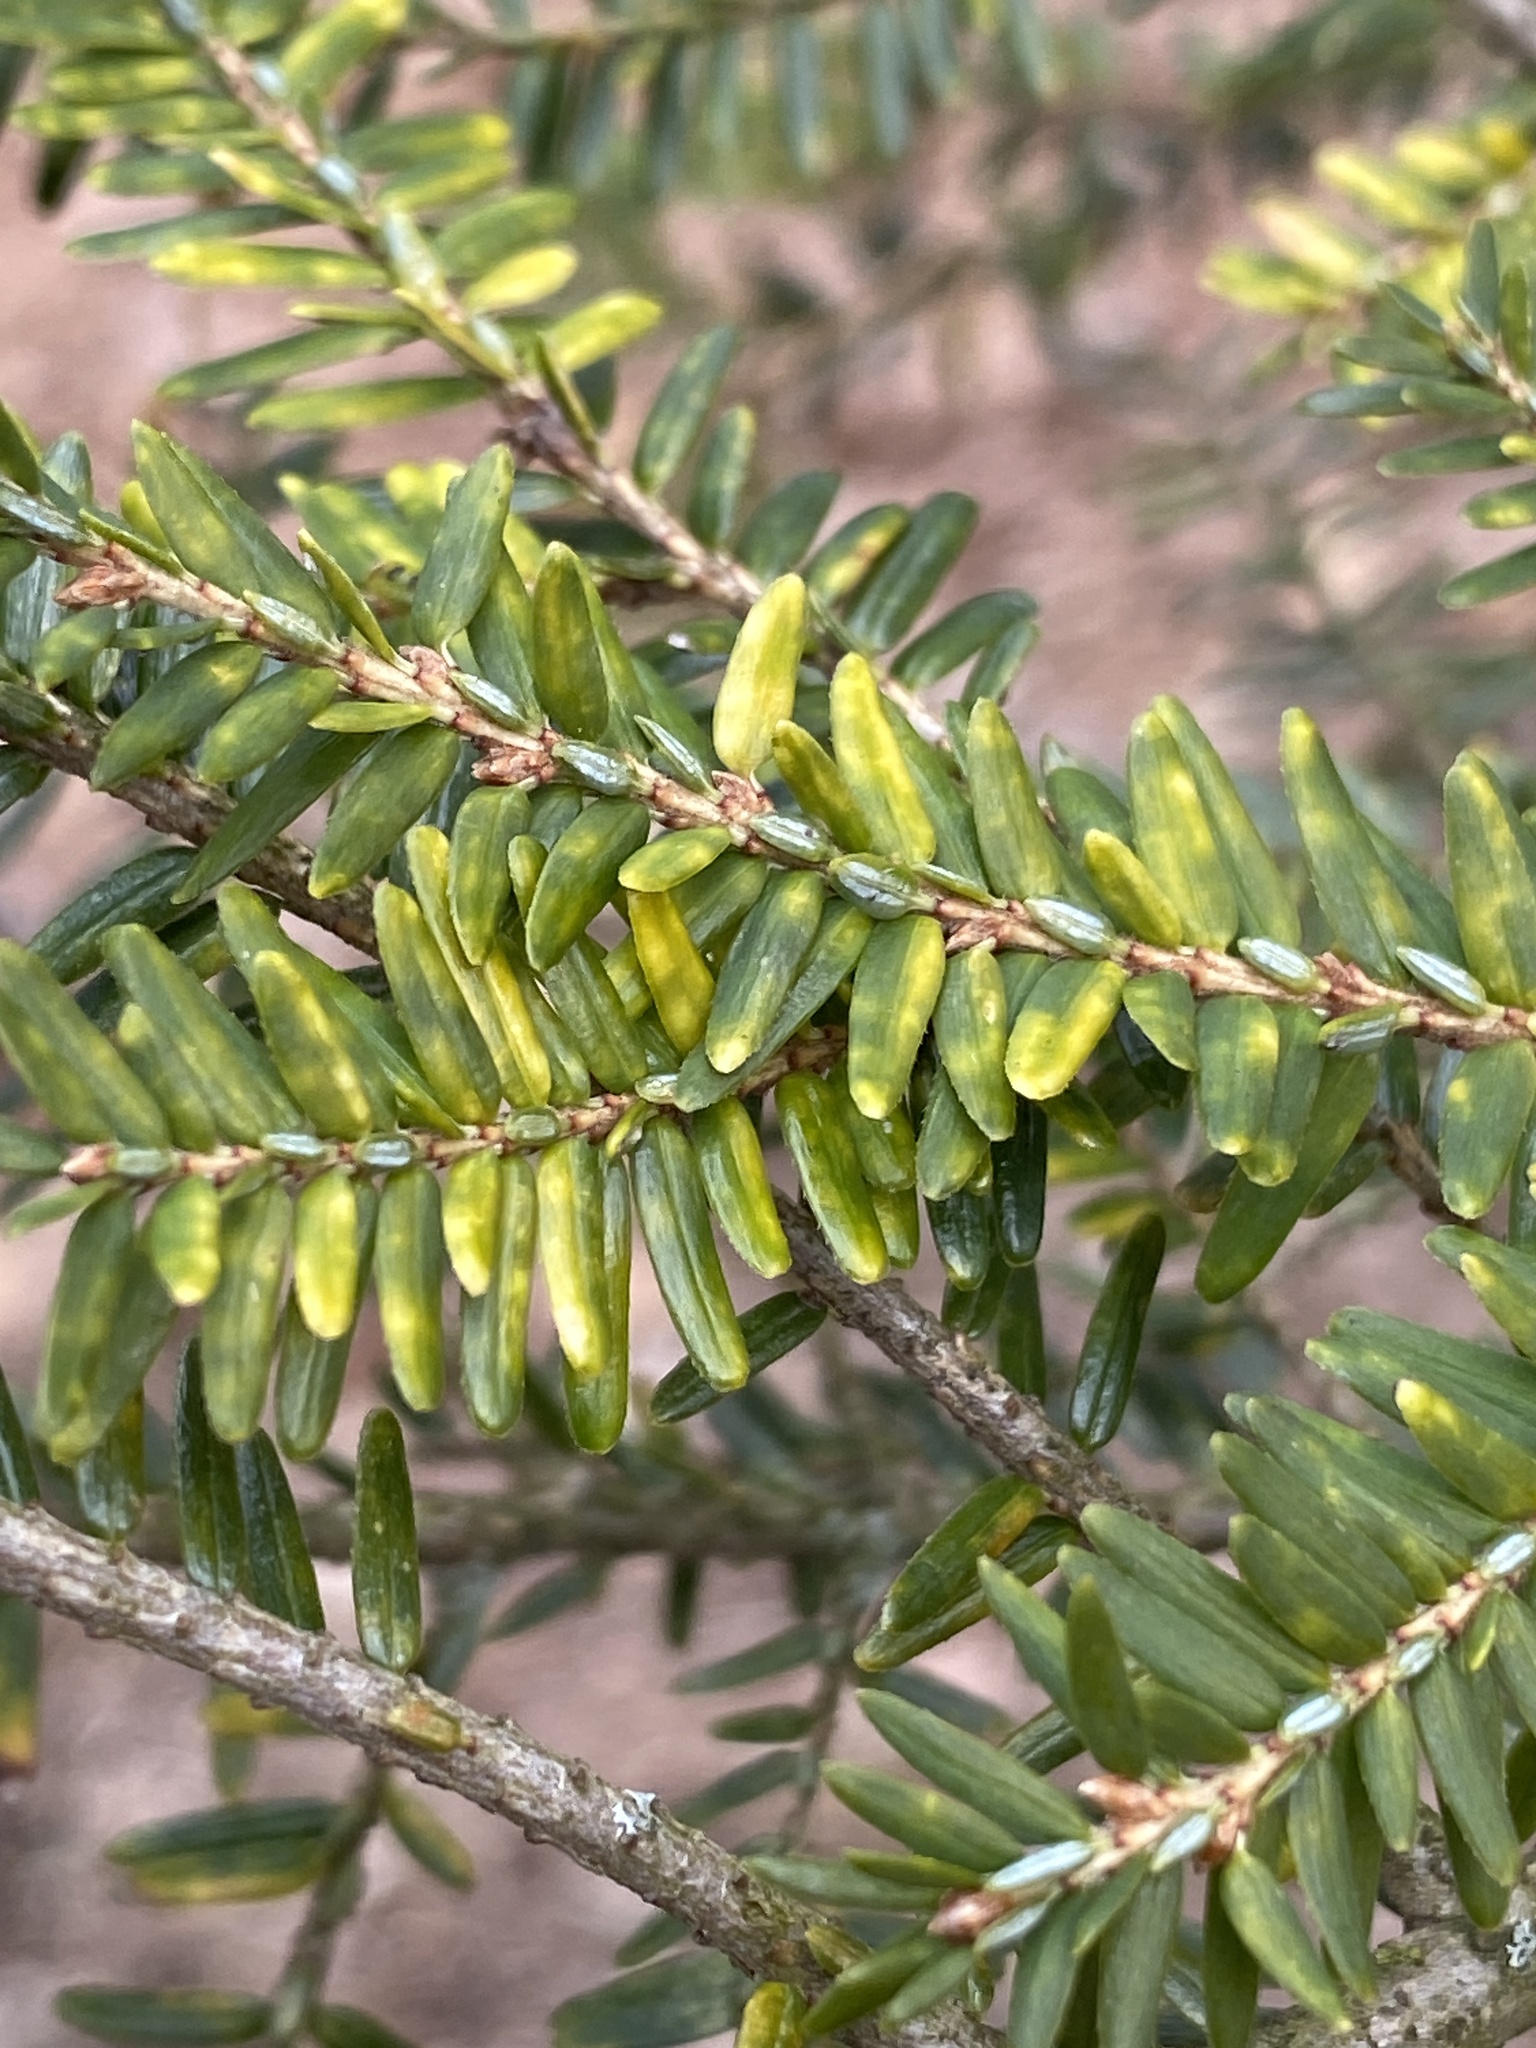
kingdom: Plantae
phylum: Tracheophyta
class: Pinopsida
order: Pinales
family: Pinaceae
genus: Tsuga
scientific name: Tsuga canadensis
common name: Eastern hemlock
